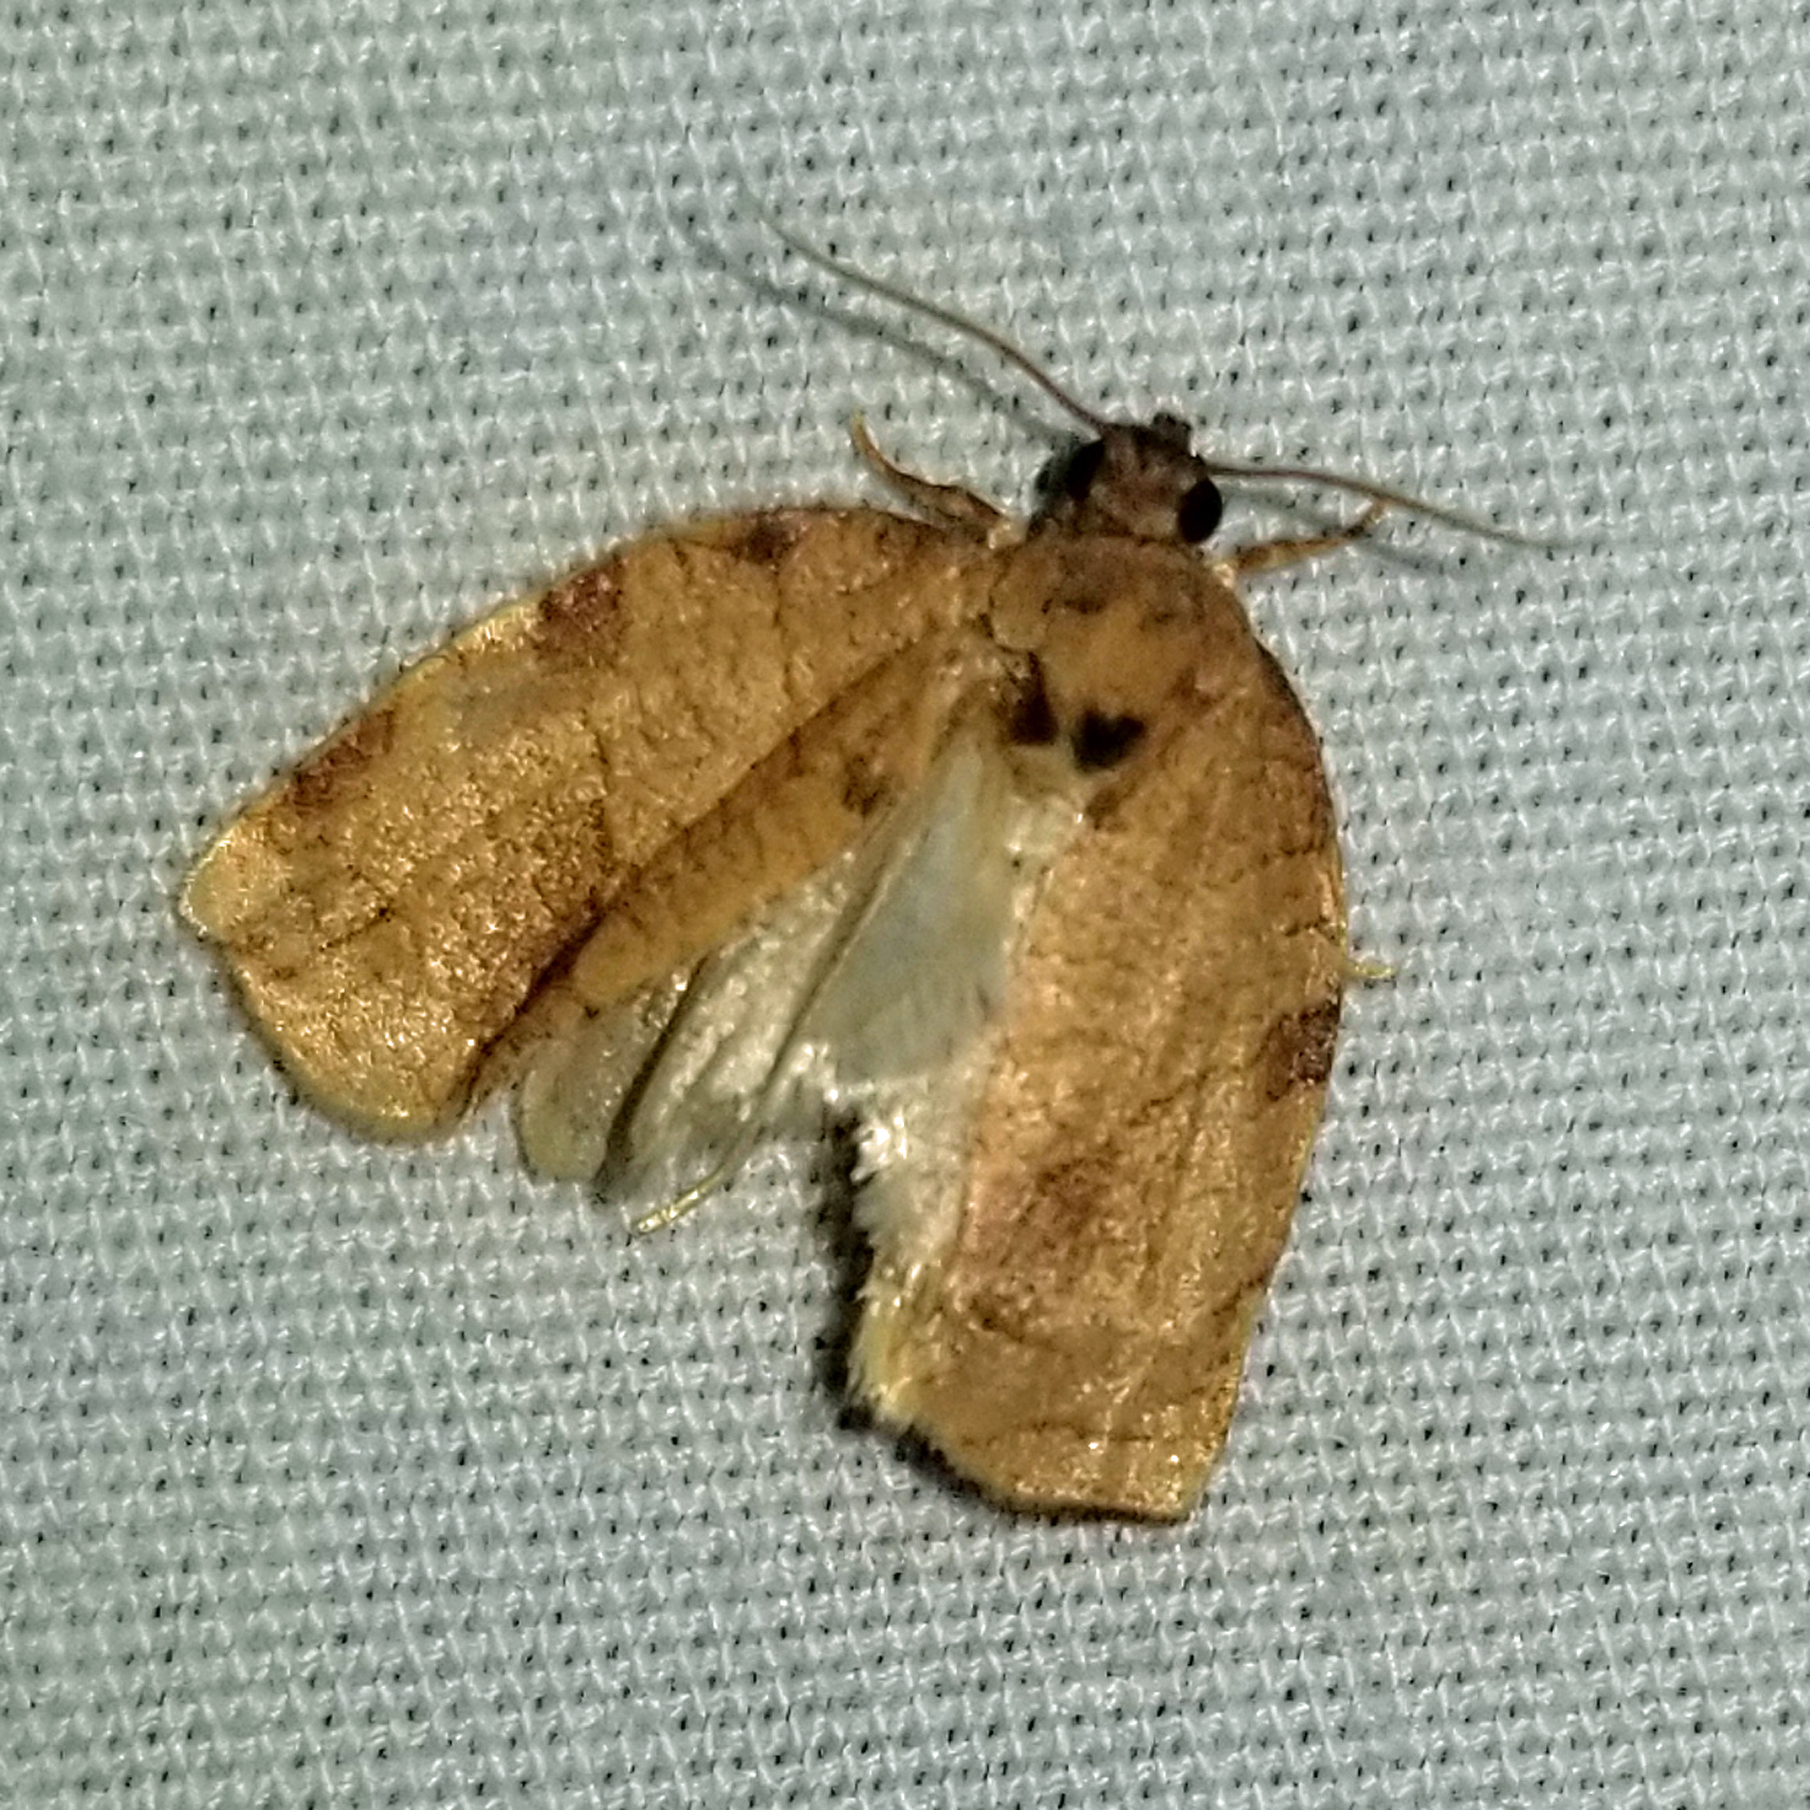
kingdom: Animalia
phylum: Arthropoda
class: Insecta
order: Lepidoptera
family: Tortricidae
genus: Choristoneura
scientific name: Choristoneura rosaceana
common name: Oblique-banded leafroller moth
